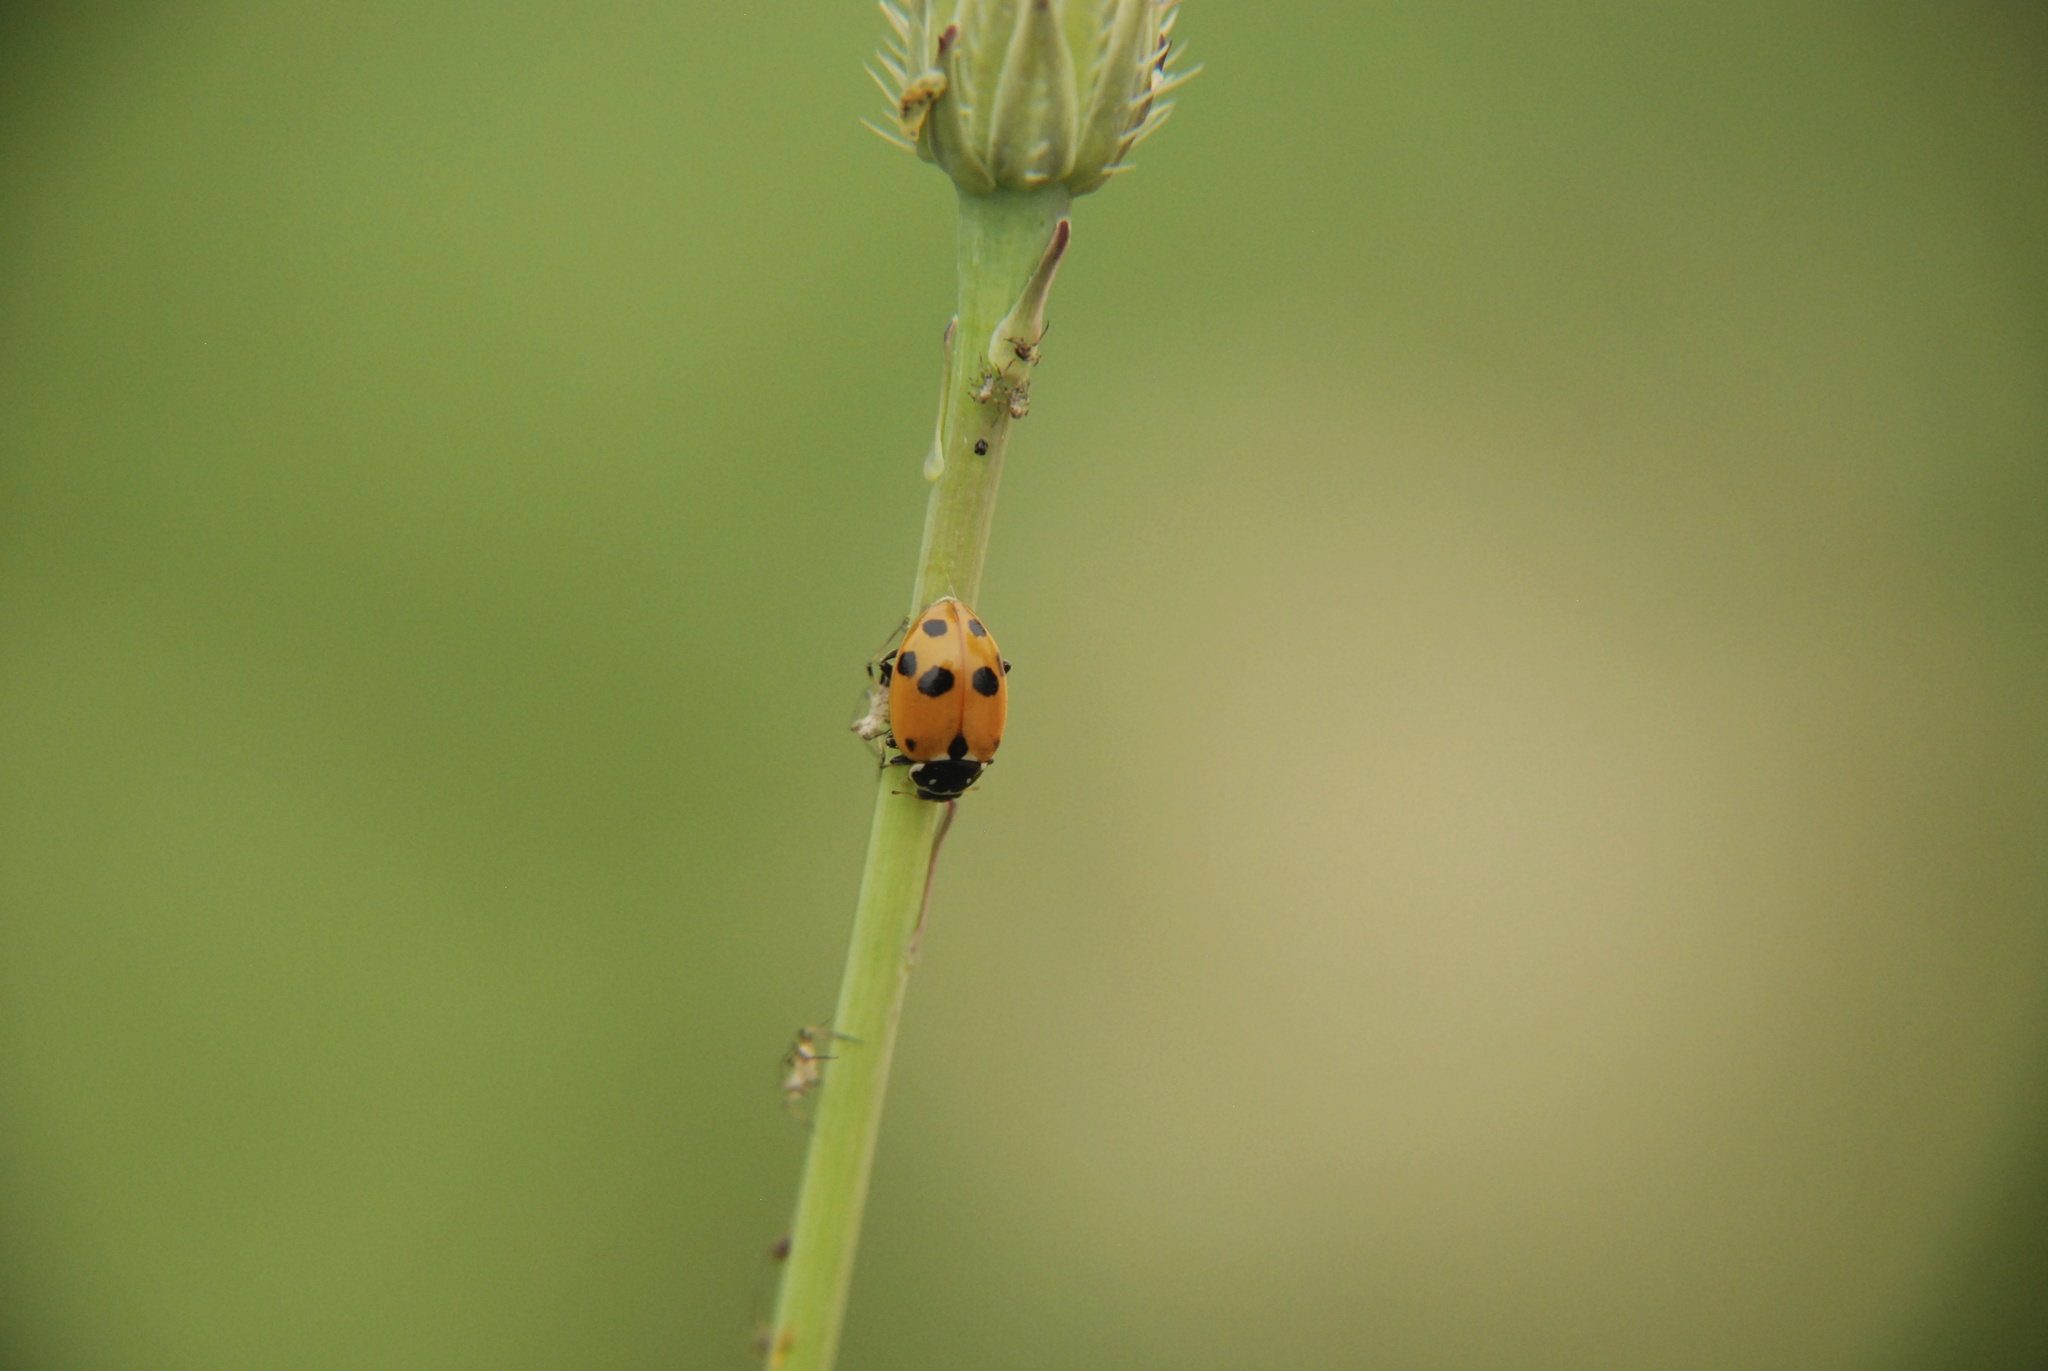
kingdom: Animalia
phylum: Arthropoda
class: Insecta
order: Coleoptera
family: Coccinellidae
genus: Hippodamia
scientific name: Hippodamia variegata
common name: Ladybird beetle
